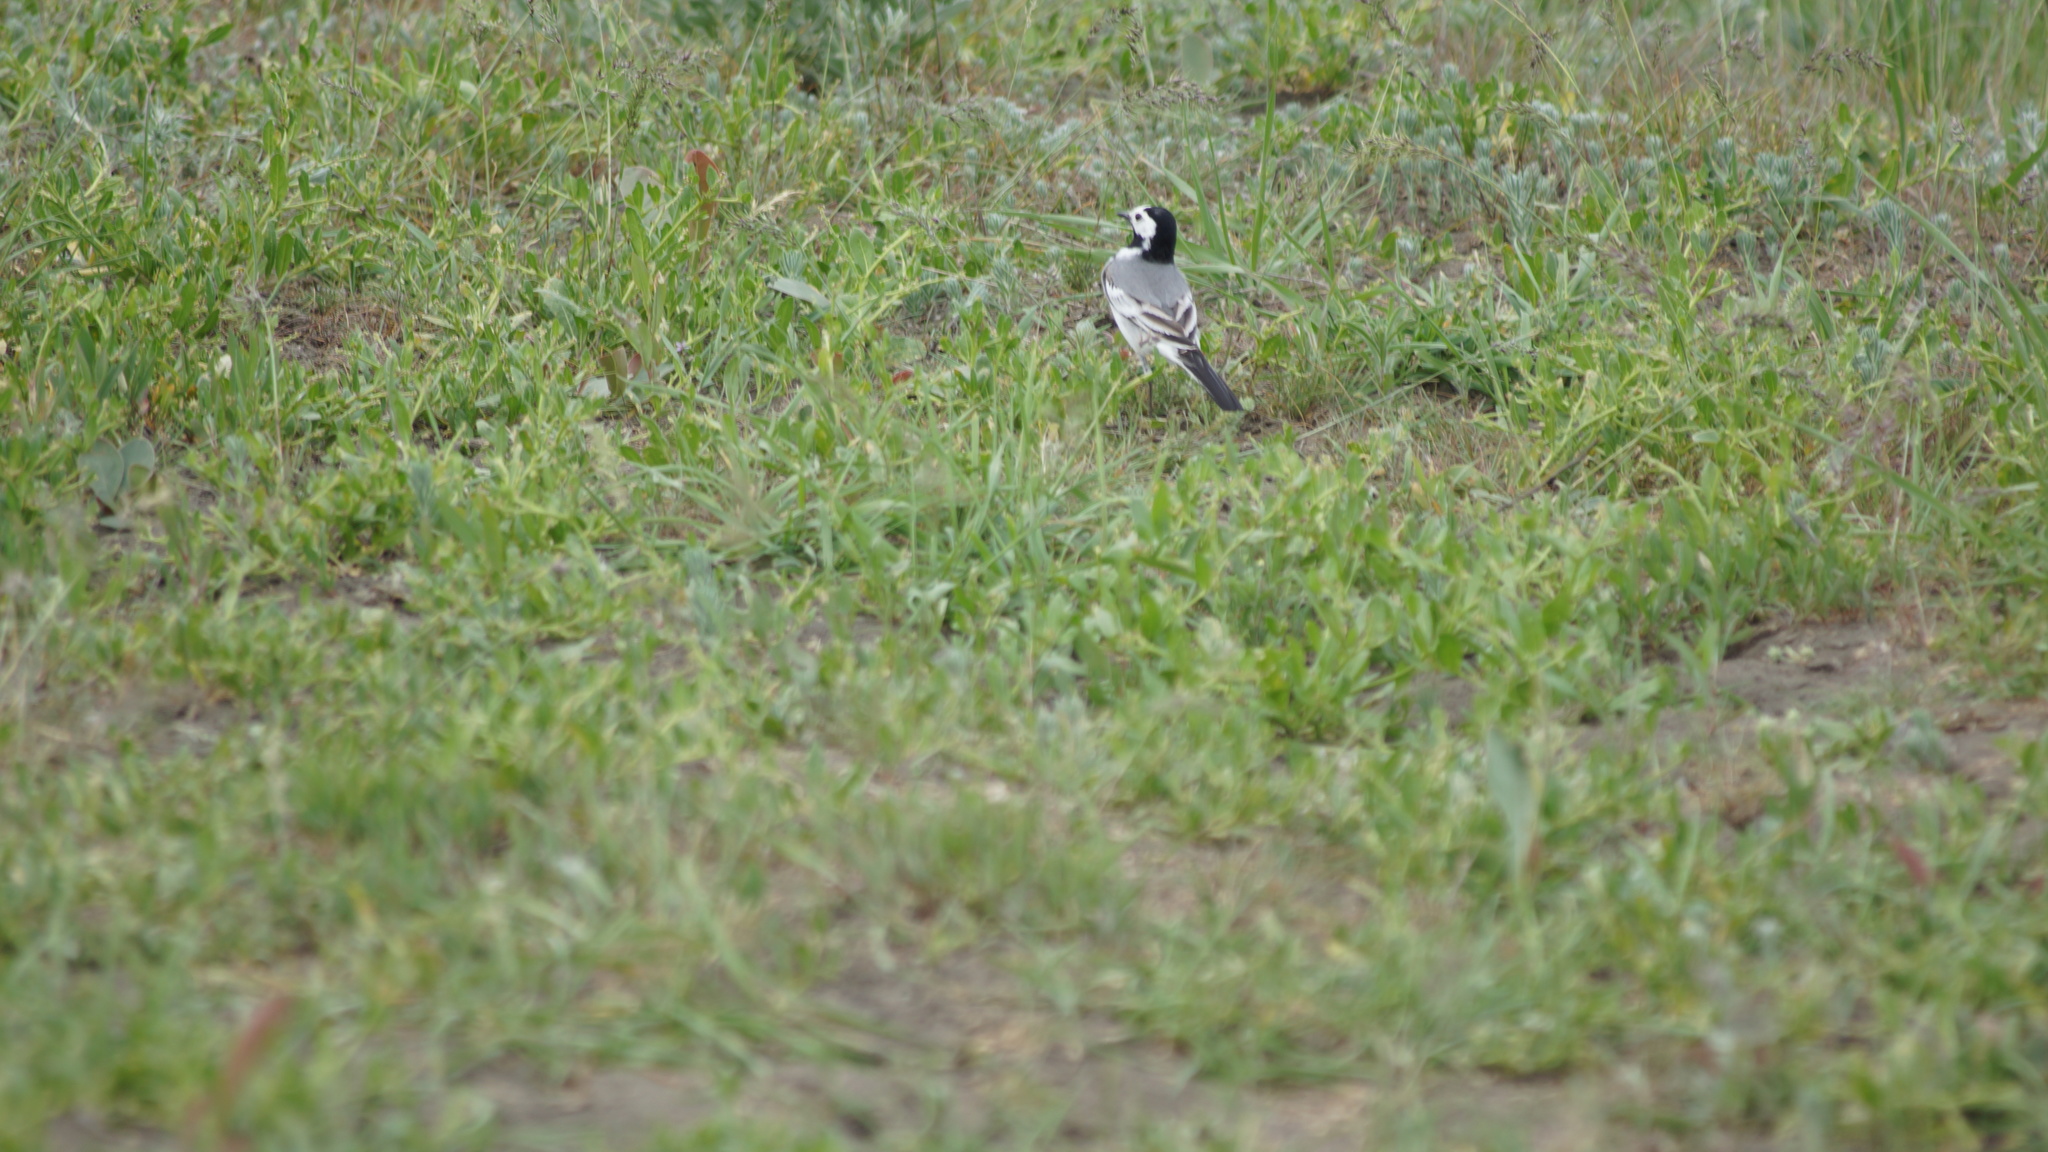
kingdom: Animalia
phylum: Chordata
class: Aves
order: Passeriformes
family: Motacillidae
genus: Motacilla
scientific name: Motacilla alba
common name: White wagtail
